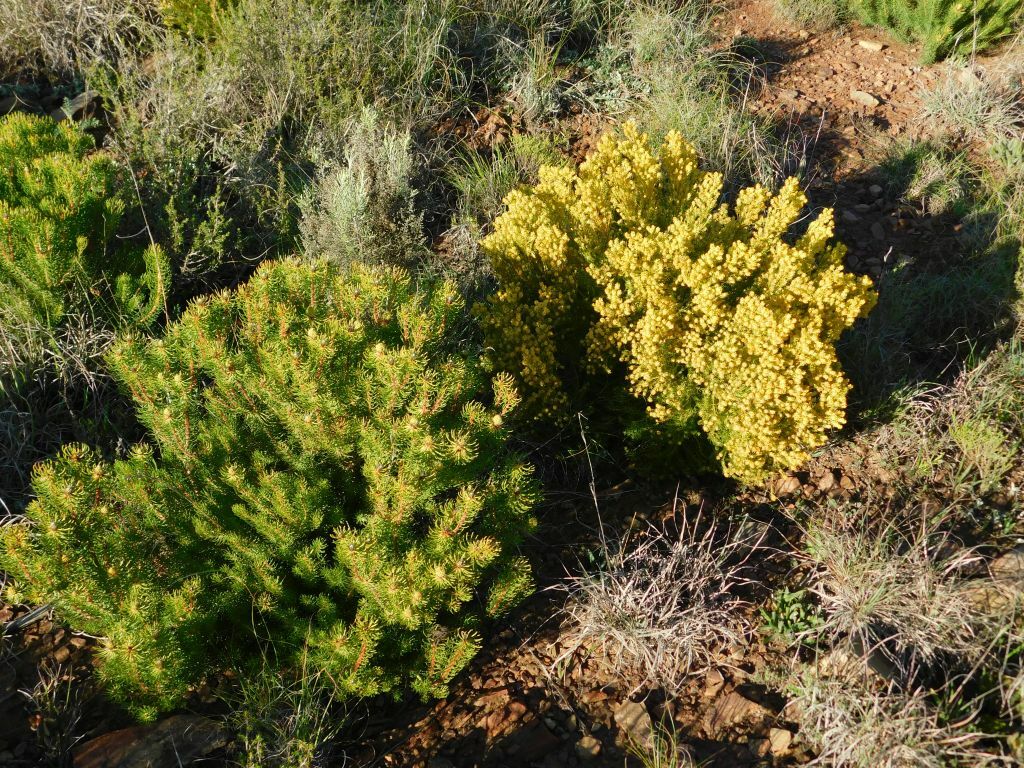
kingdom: Plantae
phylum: Tracheophyta
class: Magnoliopsida
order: Proteales
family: Proteaceae
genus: Leucadendron
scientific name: Leucadendron teretifolium
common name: Needle-leaf conebush
